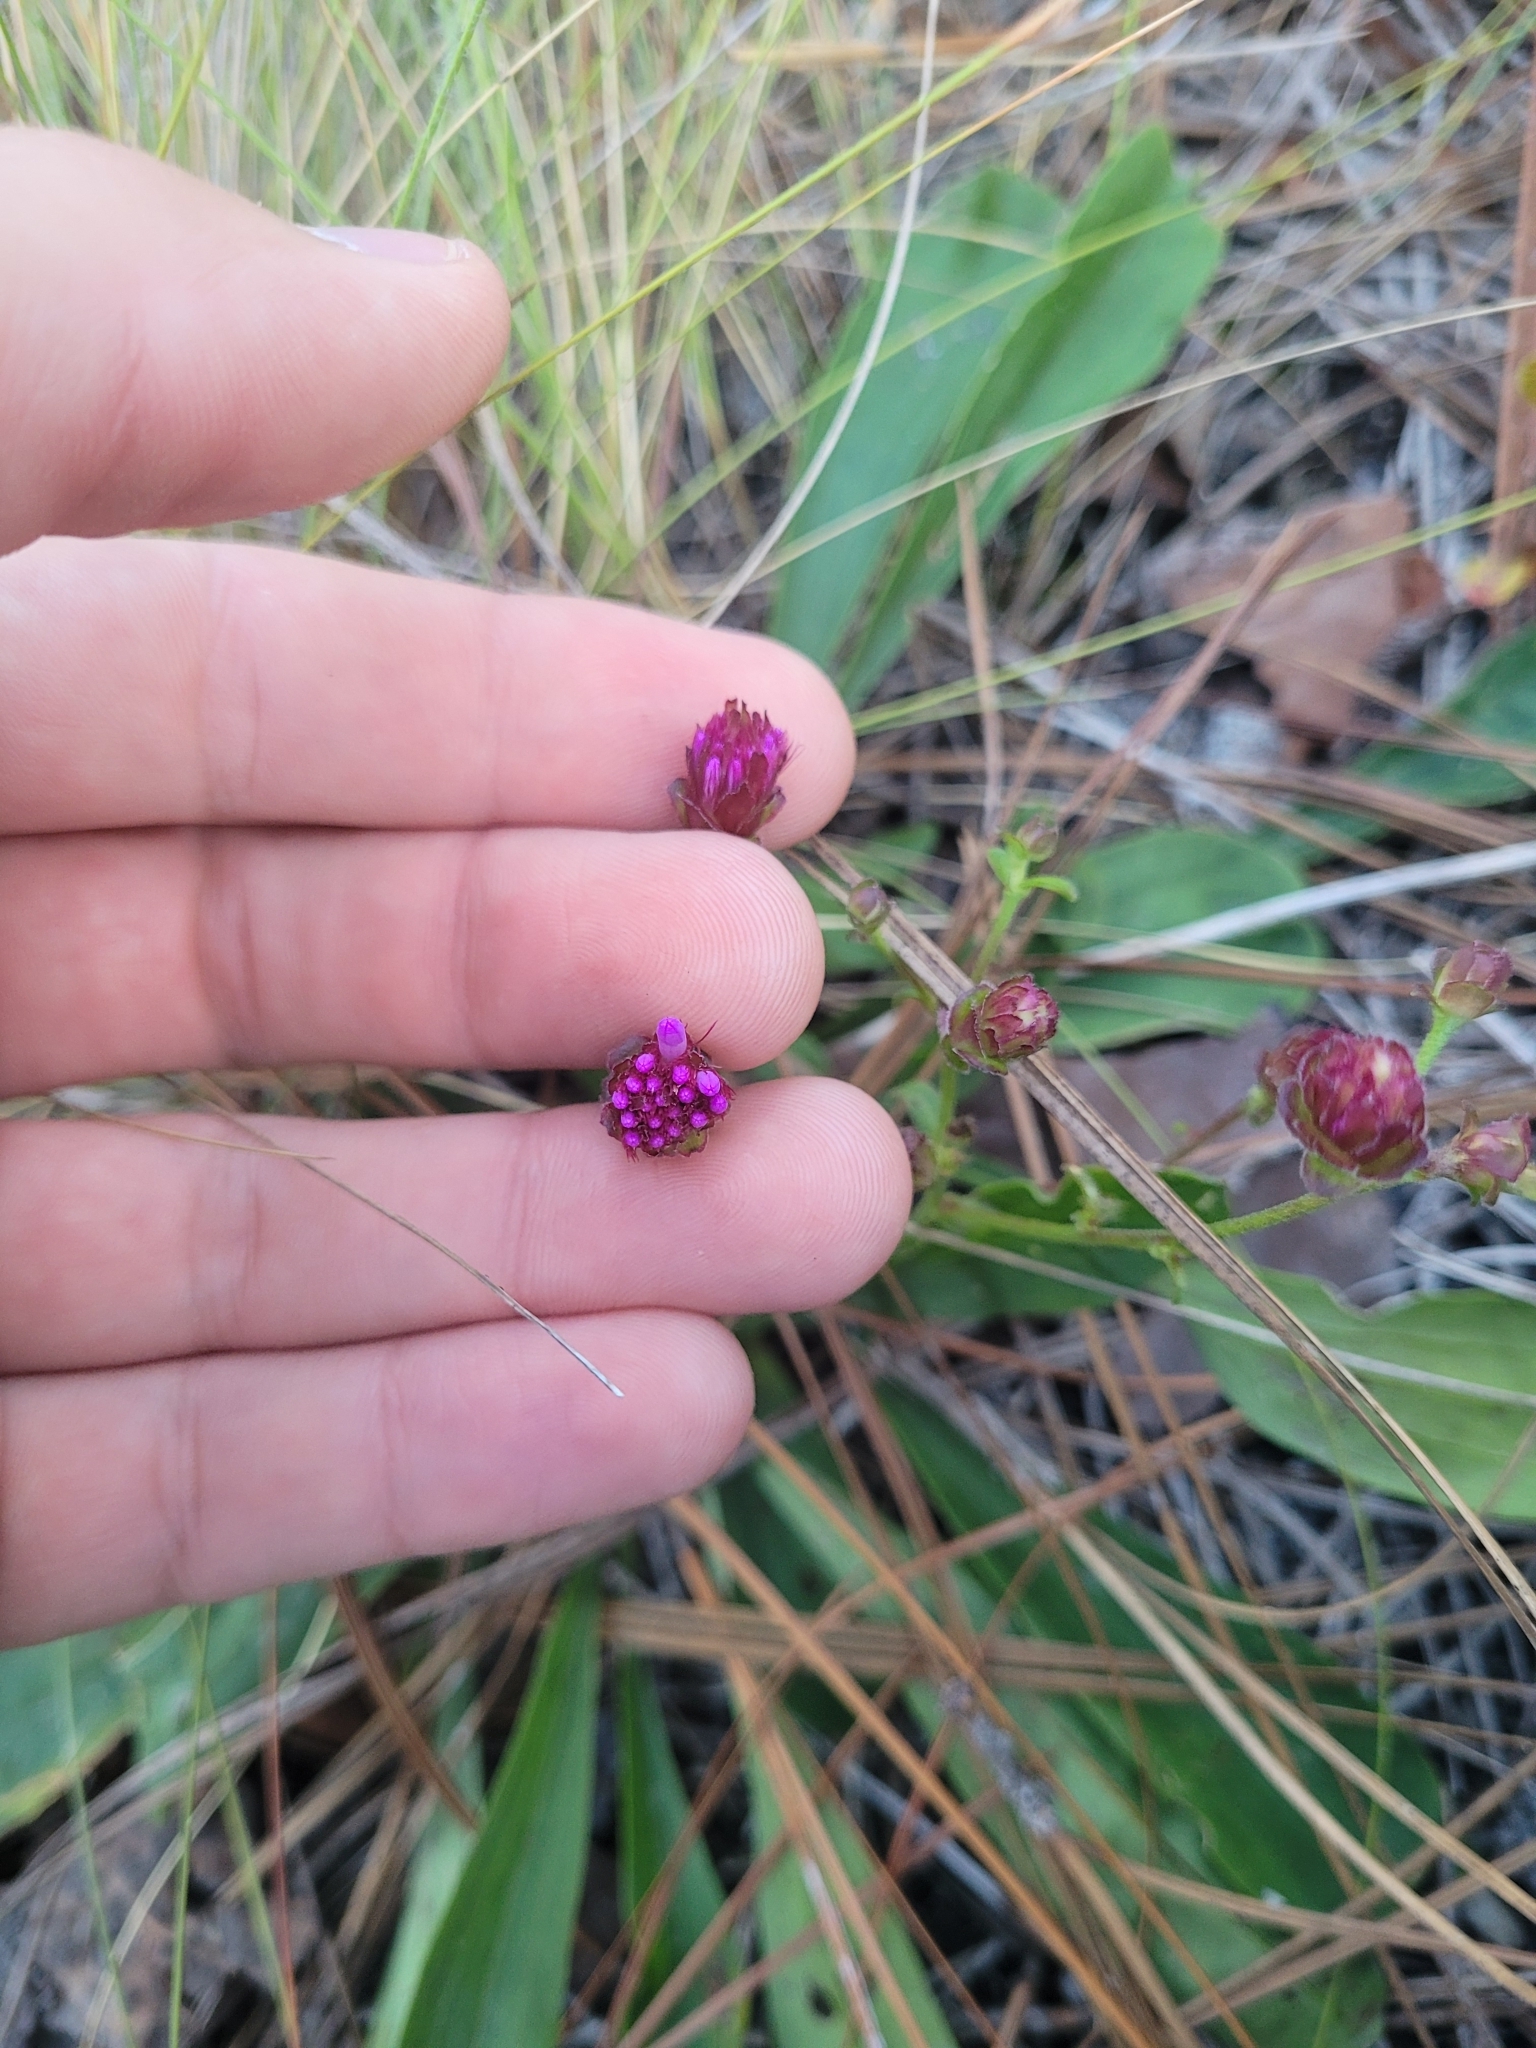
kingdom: Plantae
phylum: Tracheophyta
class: Magnoliopsida
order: Asterales
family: Asteraceae
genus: Carphephorus
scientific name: Carphephorus bellidifolius
